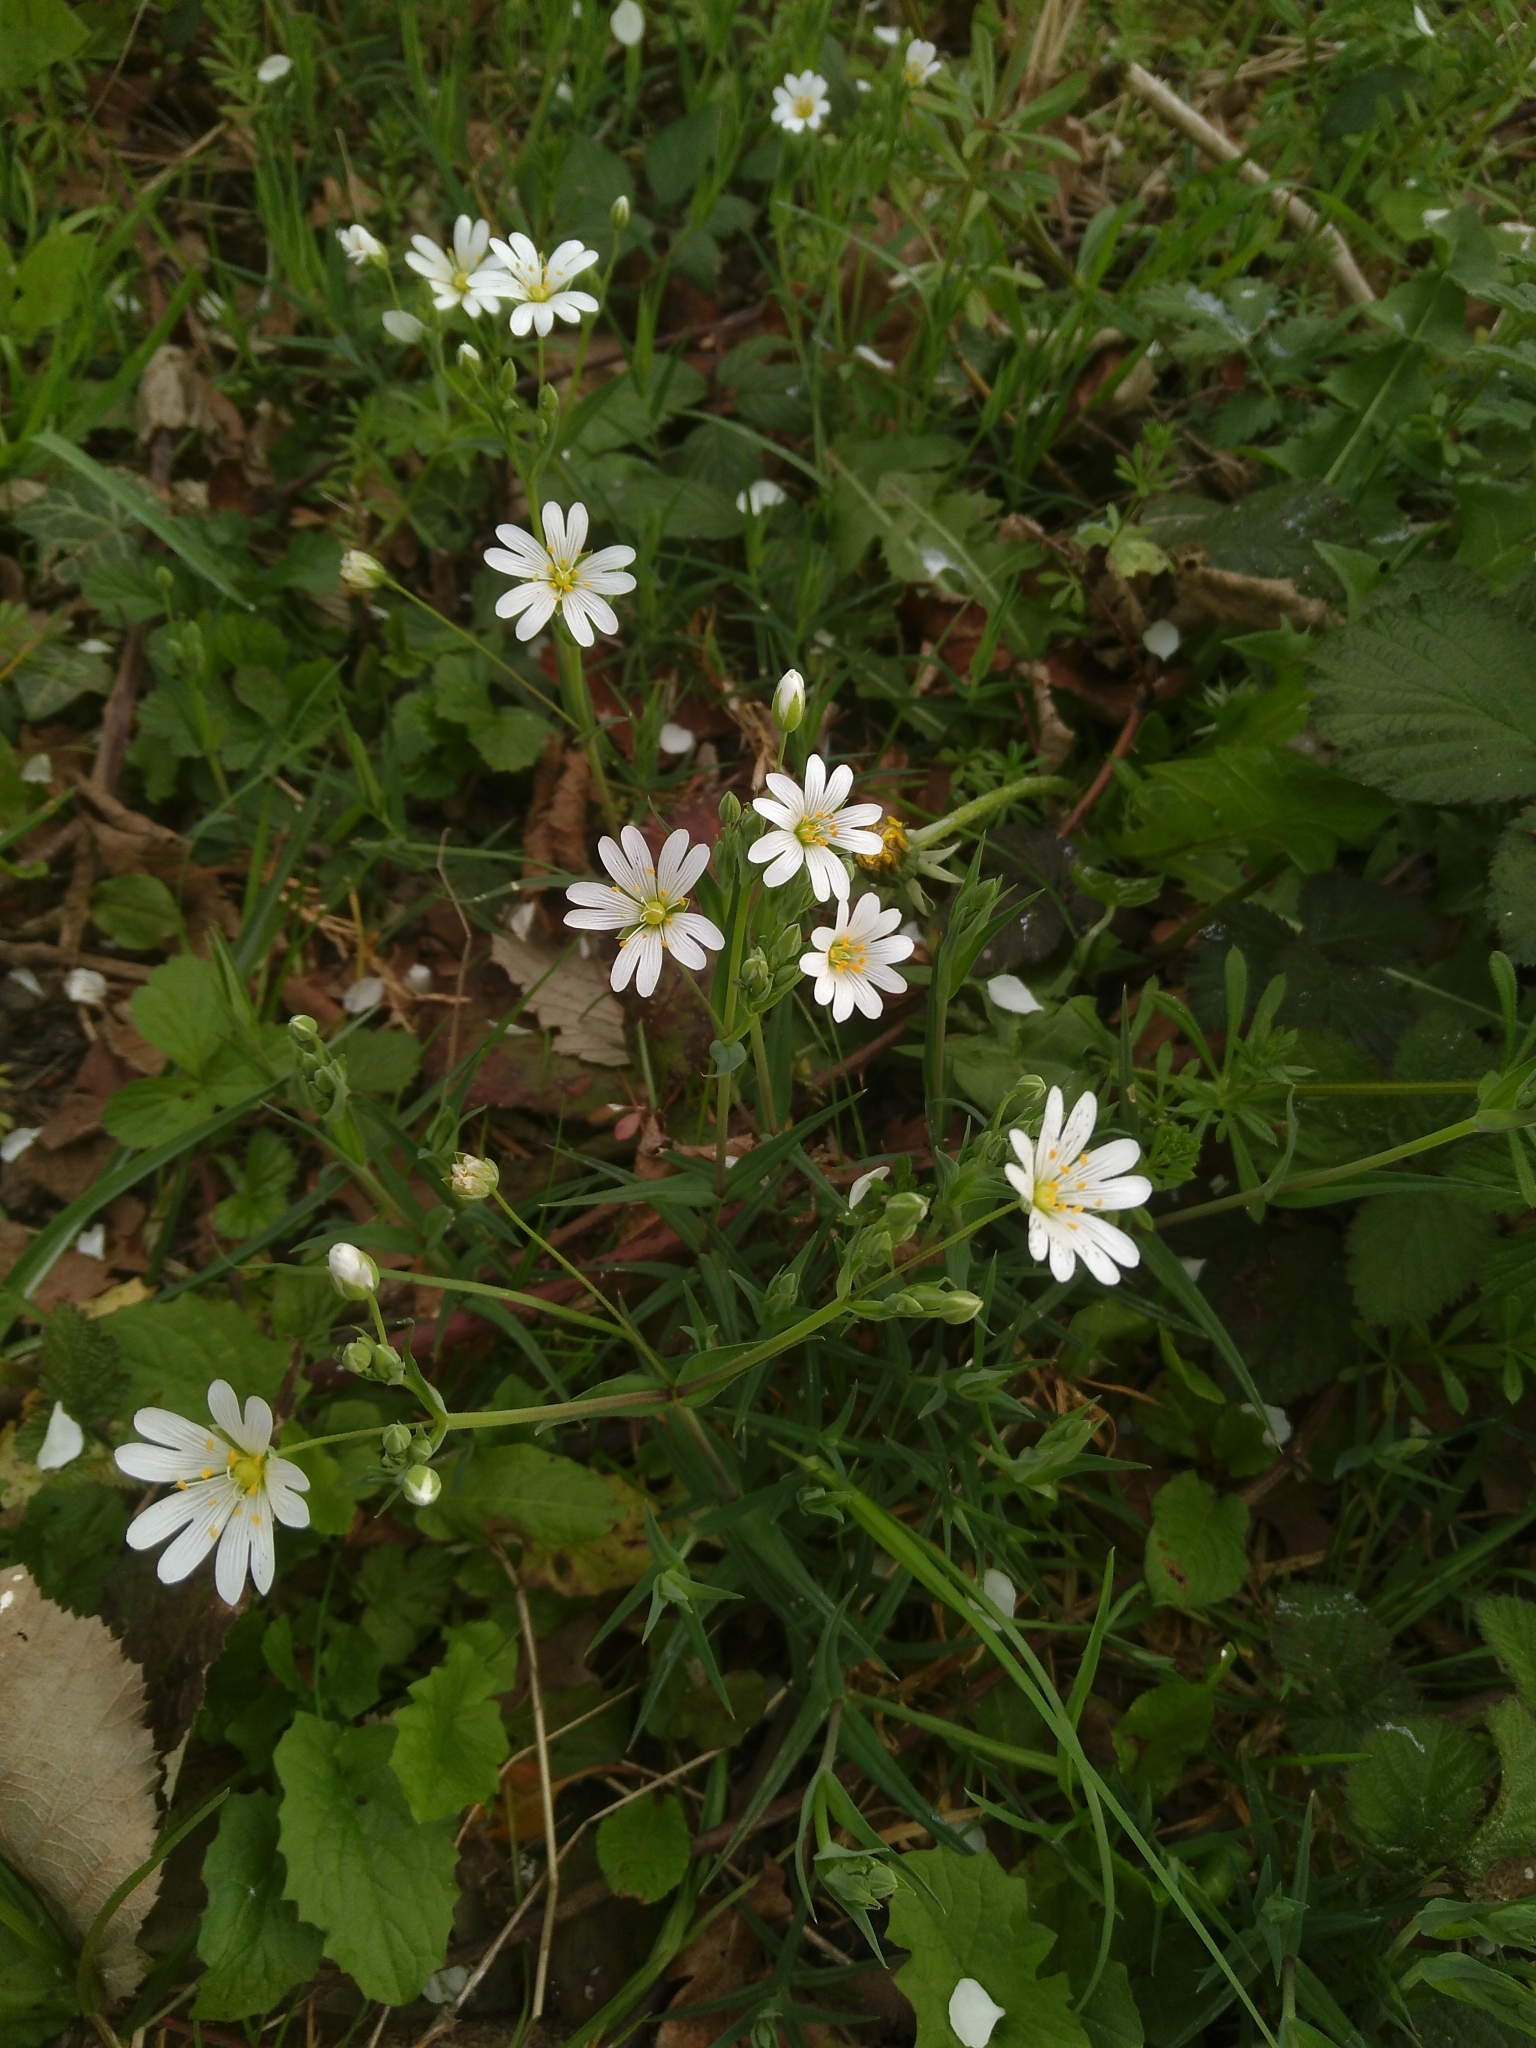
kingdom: Plantae
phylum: Tracheophyta
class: Magnoliopsida
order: Caryophyllales
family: Caryophyllaceae
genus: Rabelera
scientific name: Rabelera holostea
